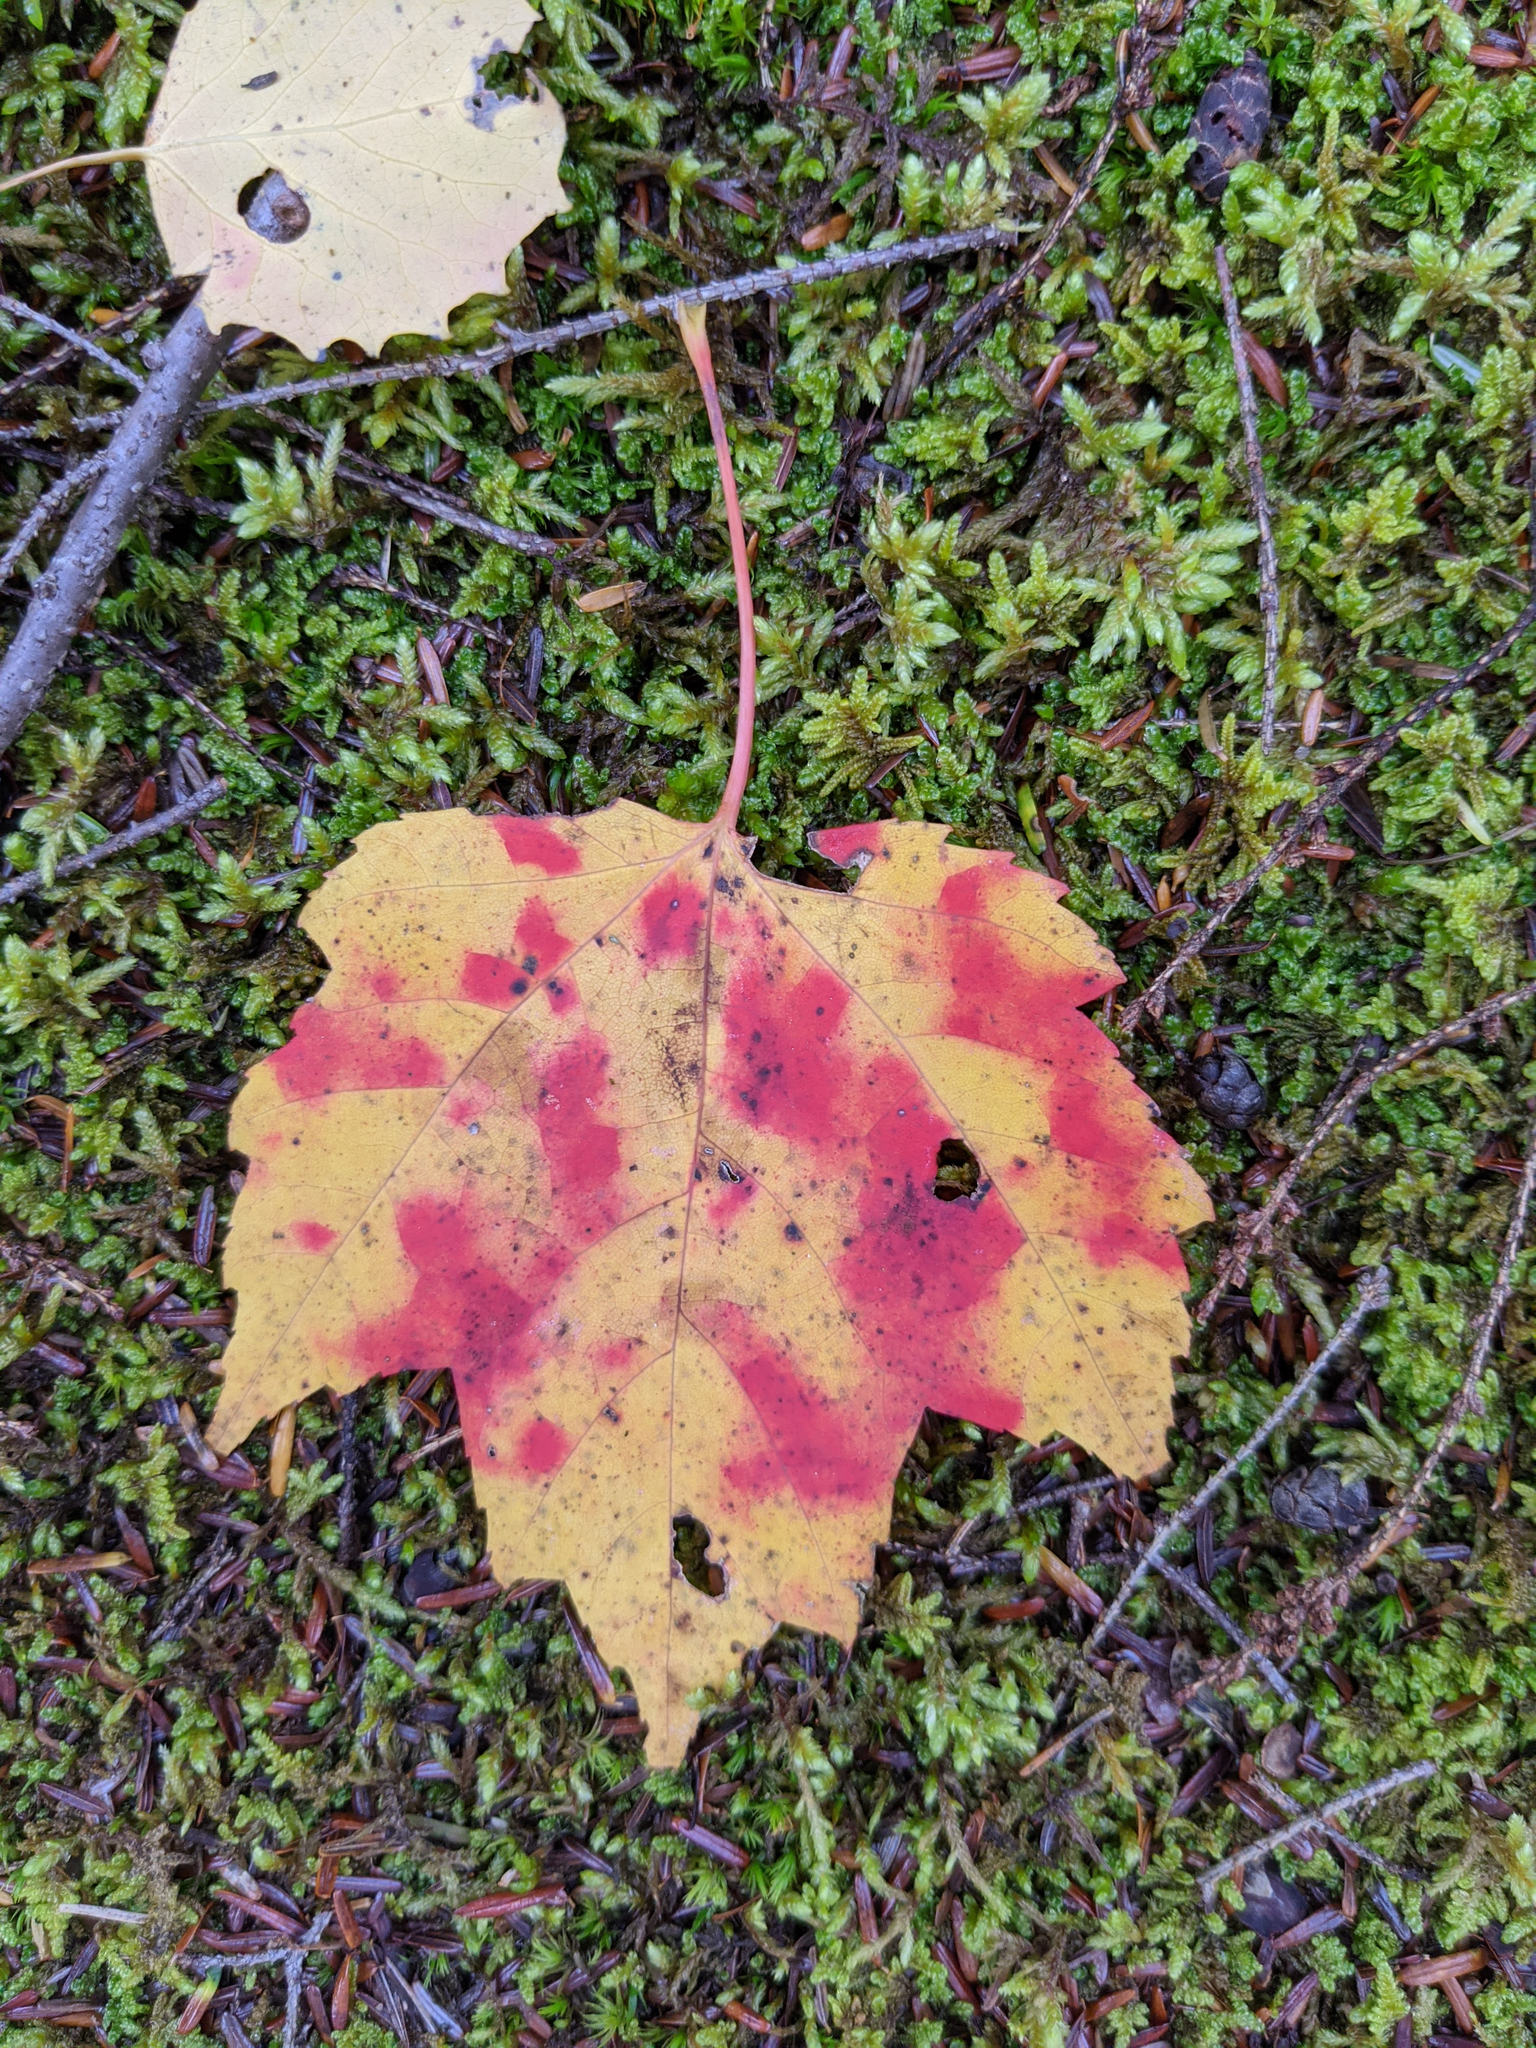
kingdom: Plantae
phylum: Tracheophyta
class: Magnoliopsida
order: Sapindales
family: Sapindaceae
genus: Acer
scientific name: Acer rubrum
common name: Red maple
